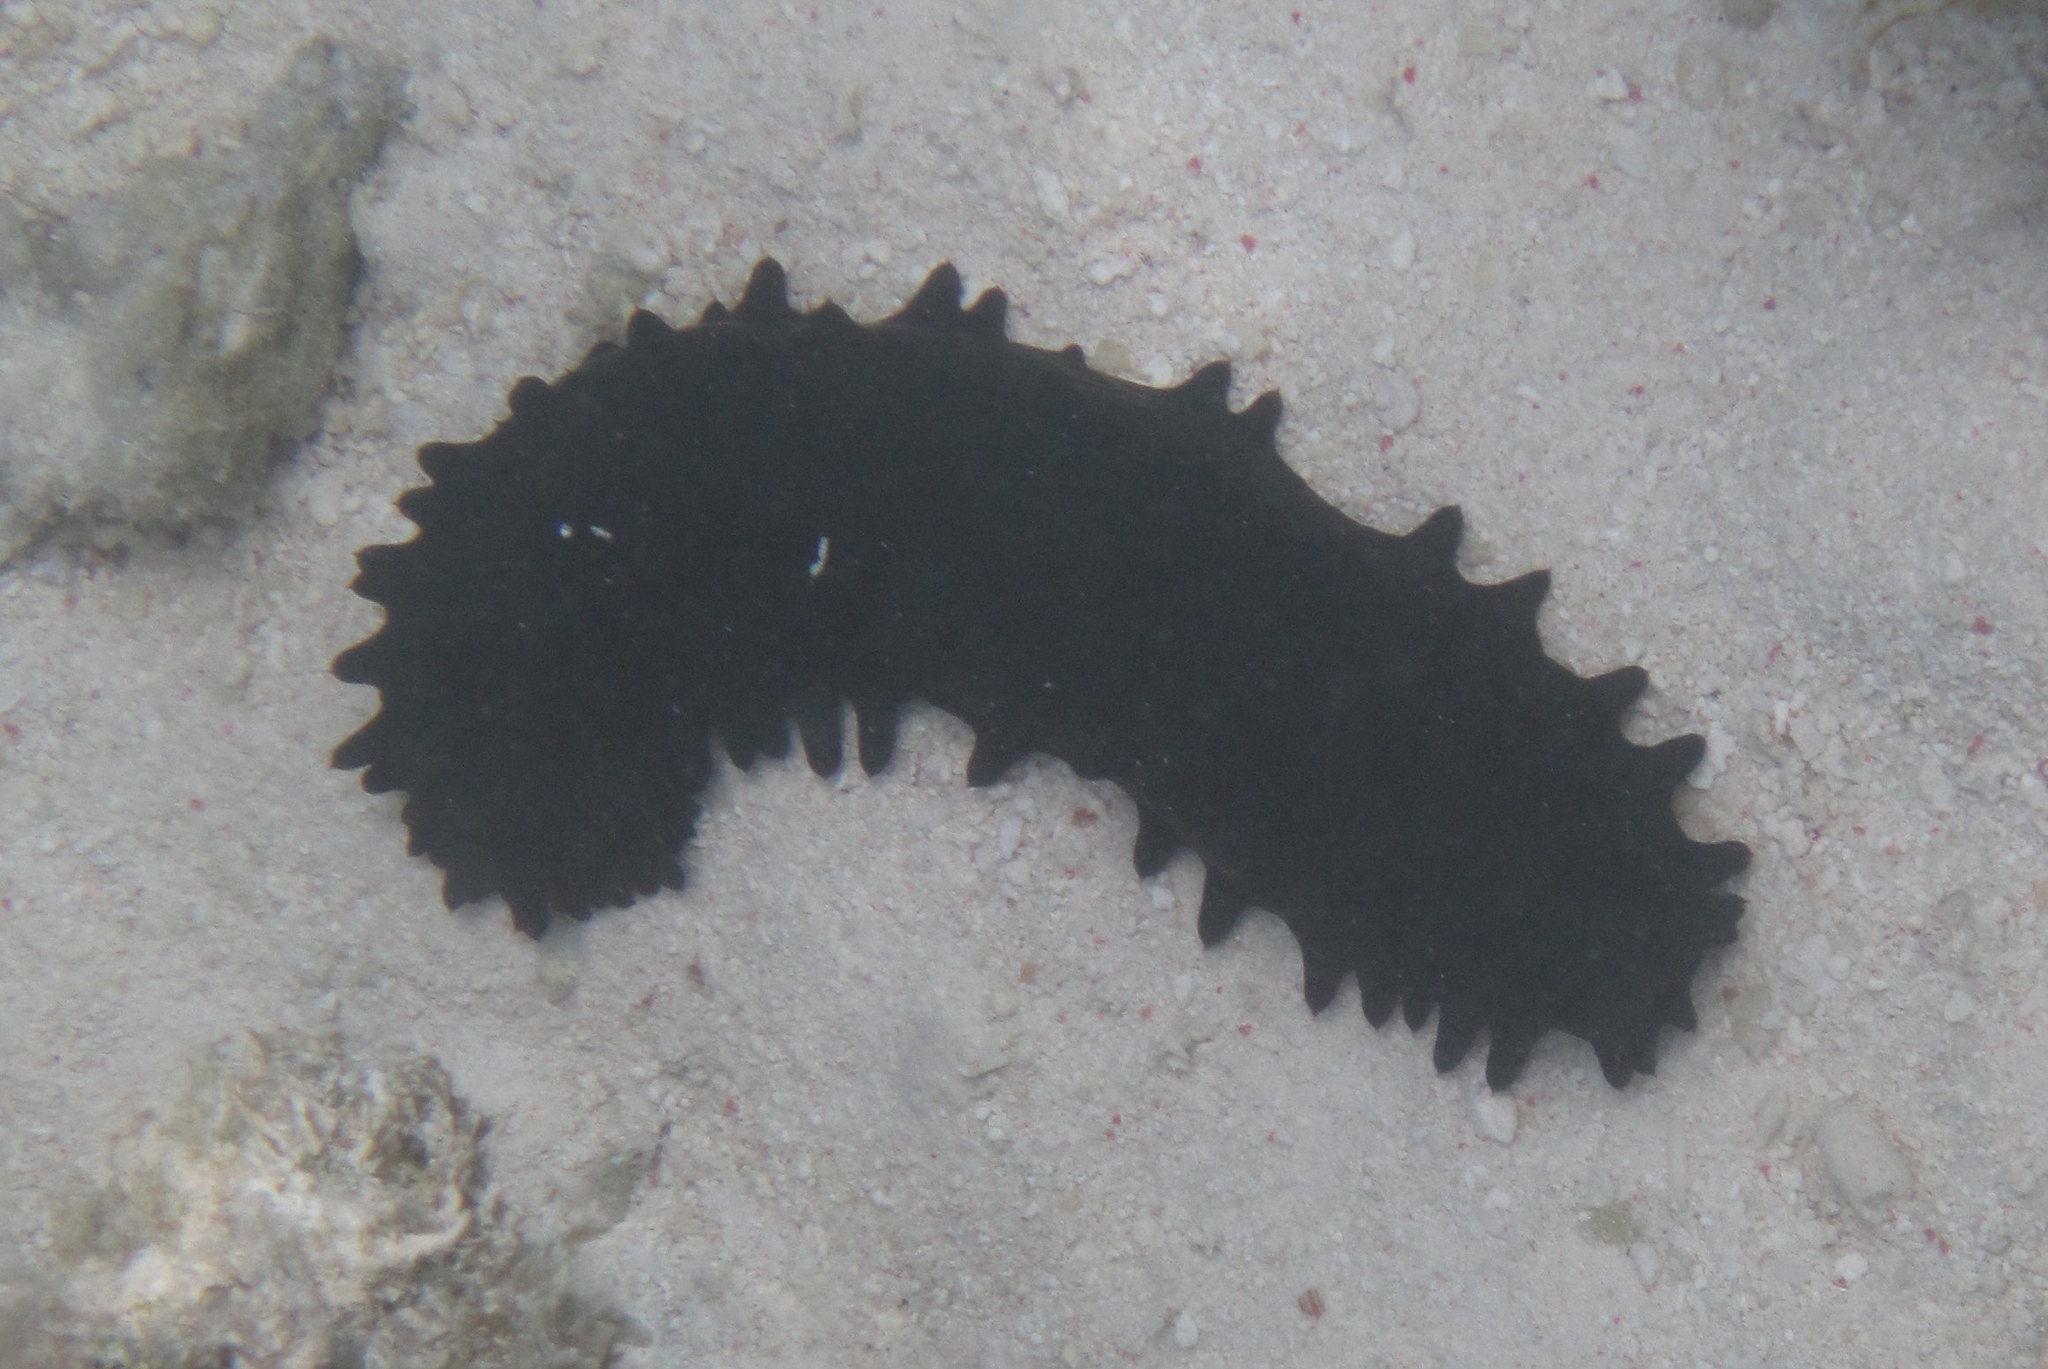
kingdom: Animalia
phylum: Echinodermata
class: Holothuroidea
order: Synallactida
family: Stichopodidae
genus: Stichopus
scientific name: Stichopus chloronotus
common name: Greenfish
